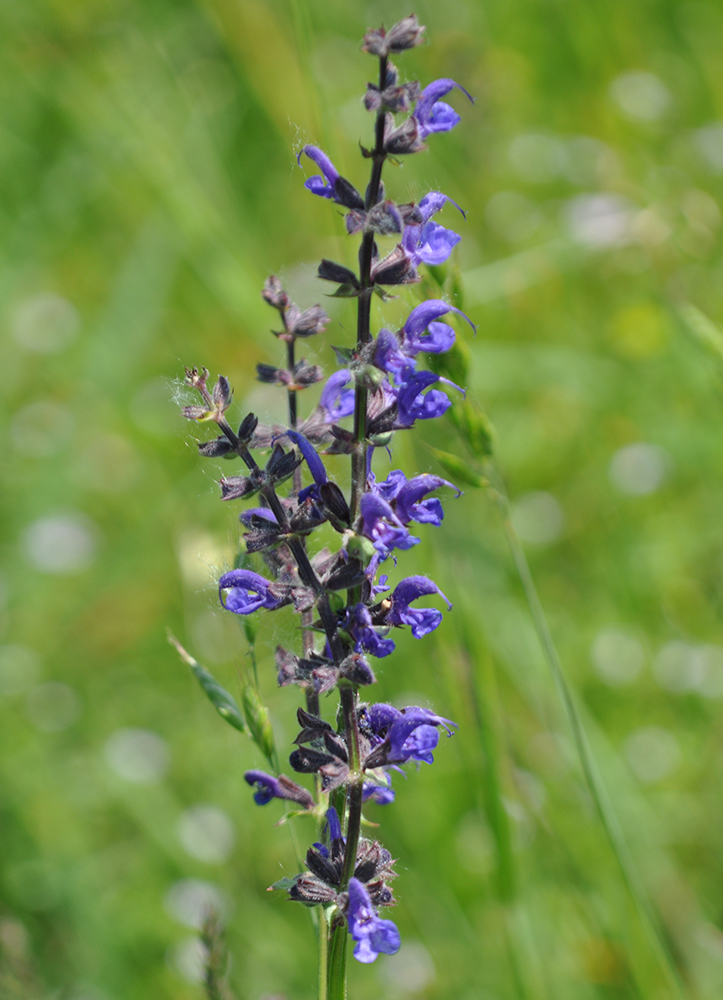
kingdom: Plantae
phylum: Tracheophyta
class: Magnoliopsida
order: Lamiales
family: Lamiaceae
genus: Salvia
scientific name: Salvia pratensis
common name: Meadow sage
